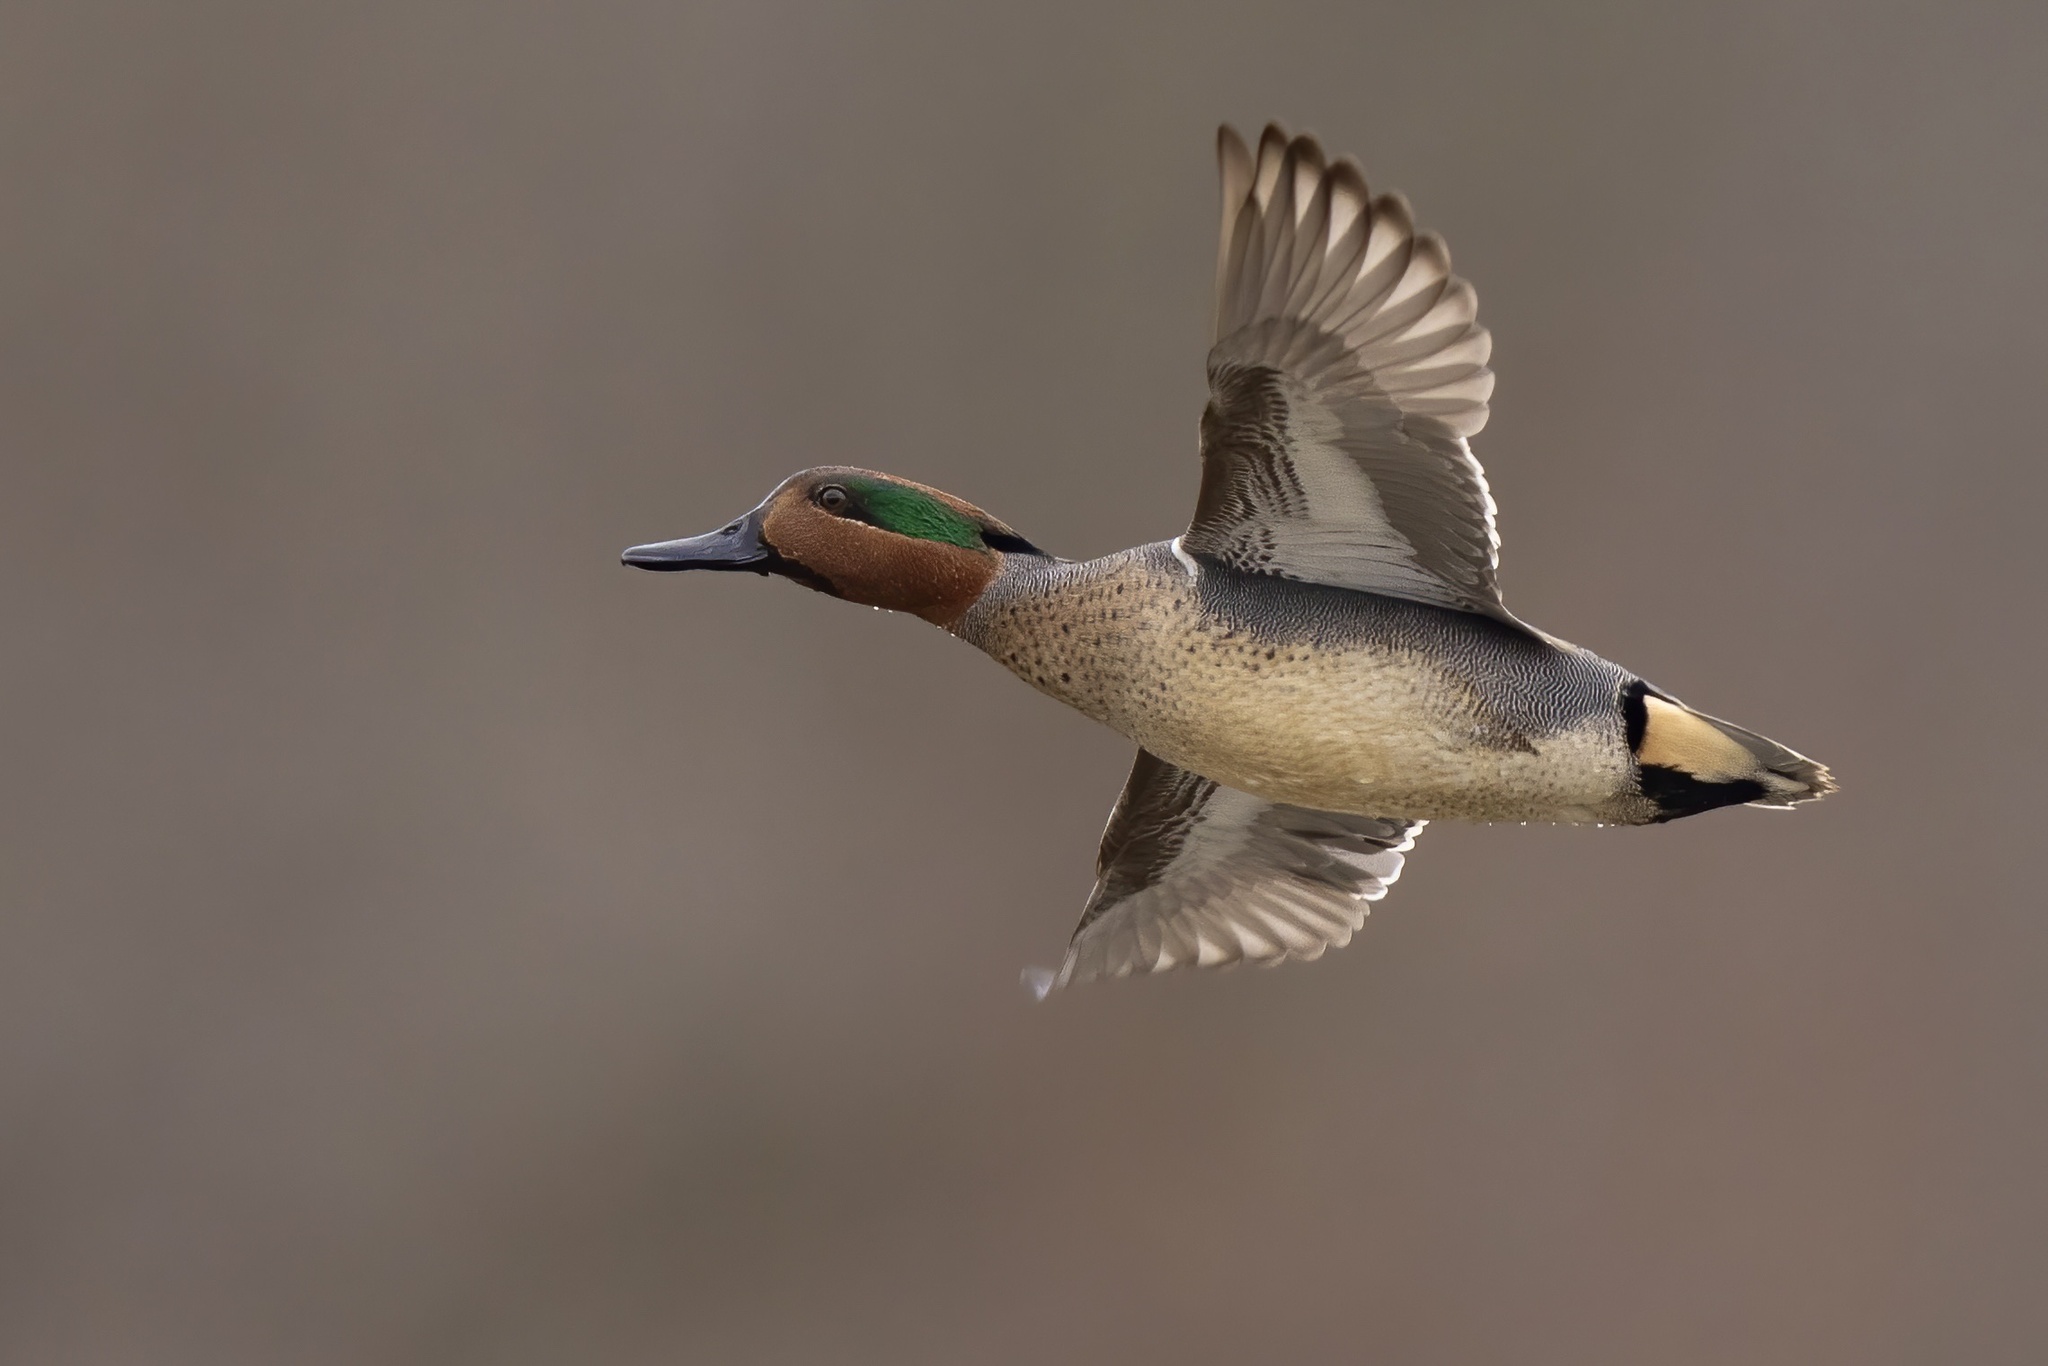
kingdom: Animalia
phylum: Chordata
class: Aves
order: Anseriformes
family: Anatidae
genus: Anas
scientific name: Anas crecca
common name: Eurasian teal
